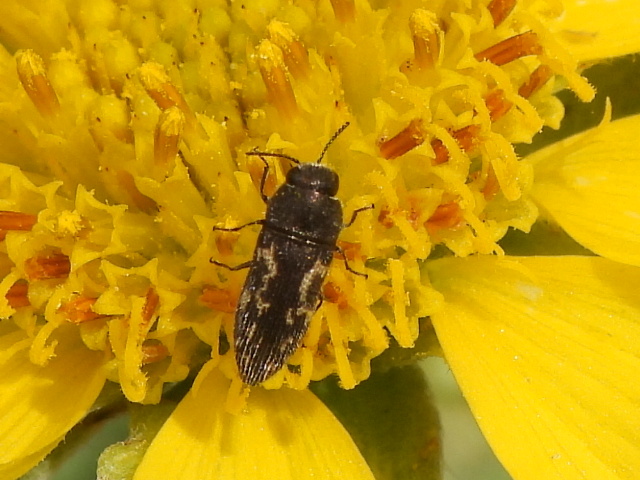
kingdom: Animalia
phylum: Arthropoda
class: Insecta
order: Coleoptera
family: Buprestidae
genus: Acmaeodera
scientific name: Acmaeodera neglecta
